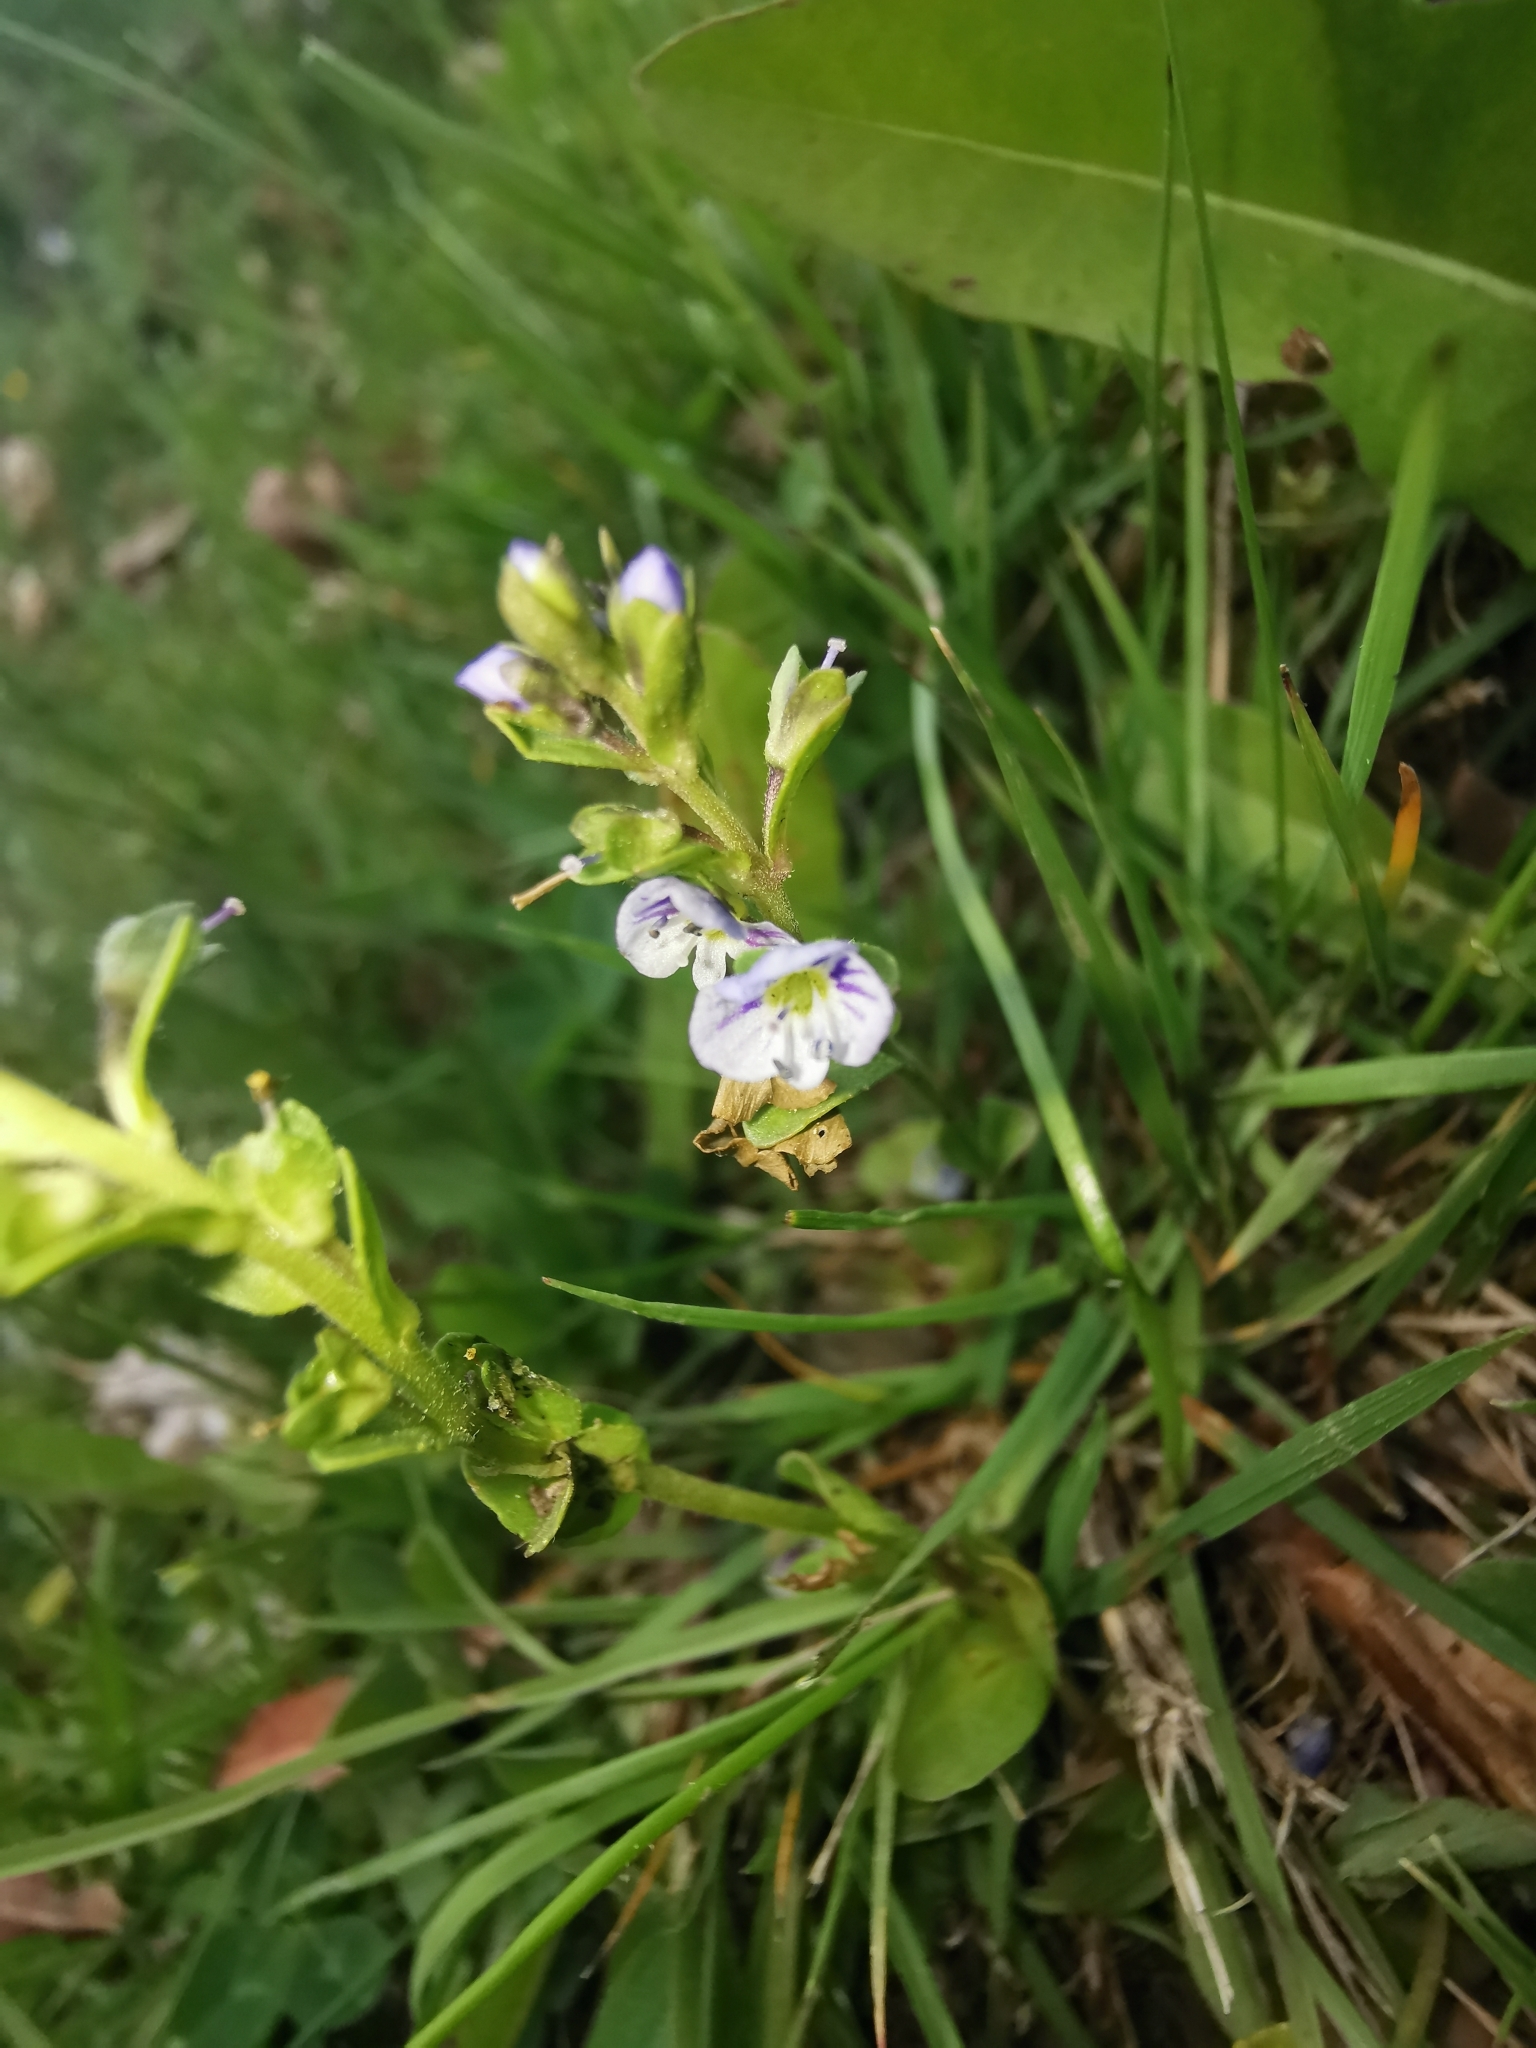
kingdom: Plantae
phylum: Tracheophyta
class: Magnoliopsida
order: Lamiales
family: Plantaginaceae
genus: Veronica
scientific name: Veronica serpyllifolia
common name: Thyme-leaved speedwell
